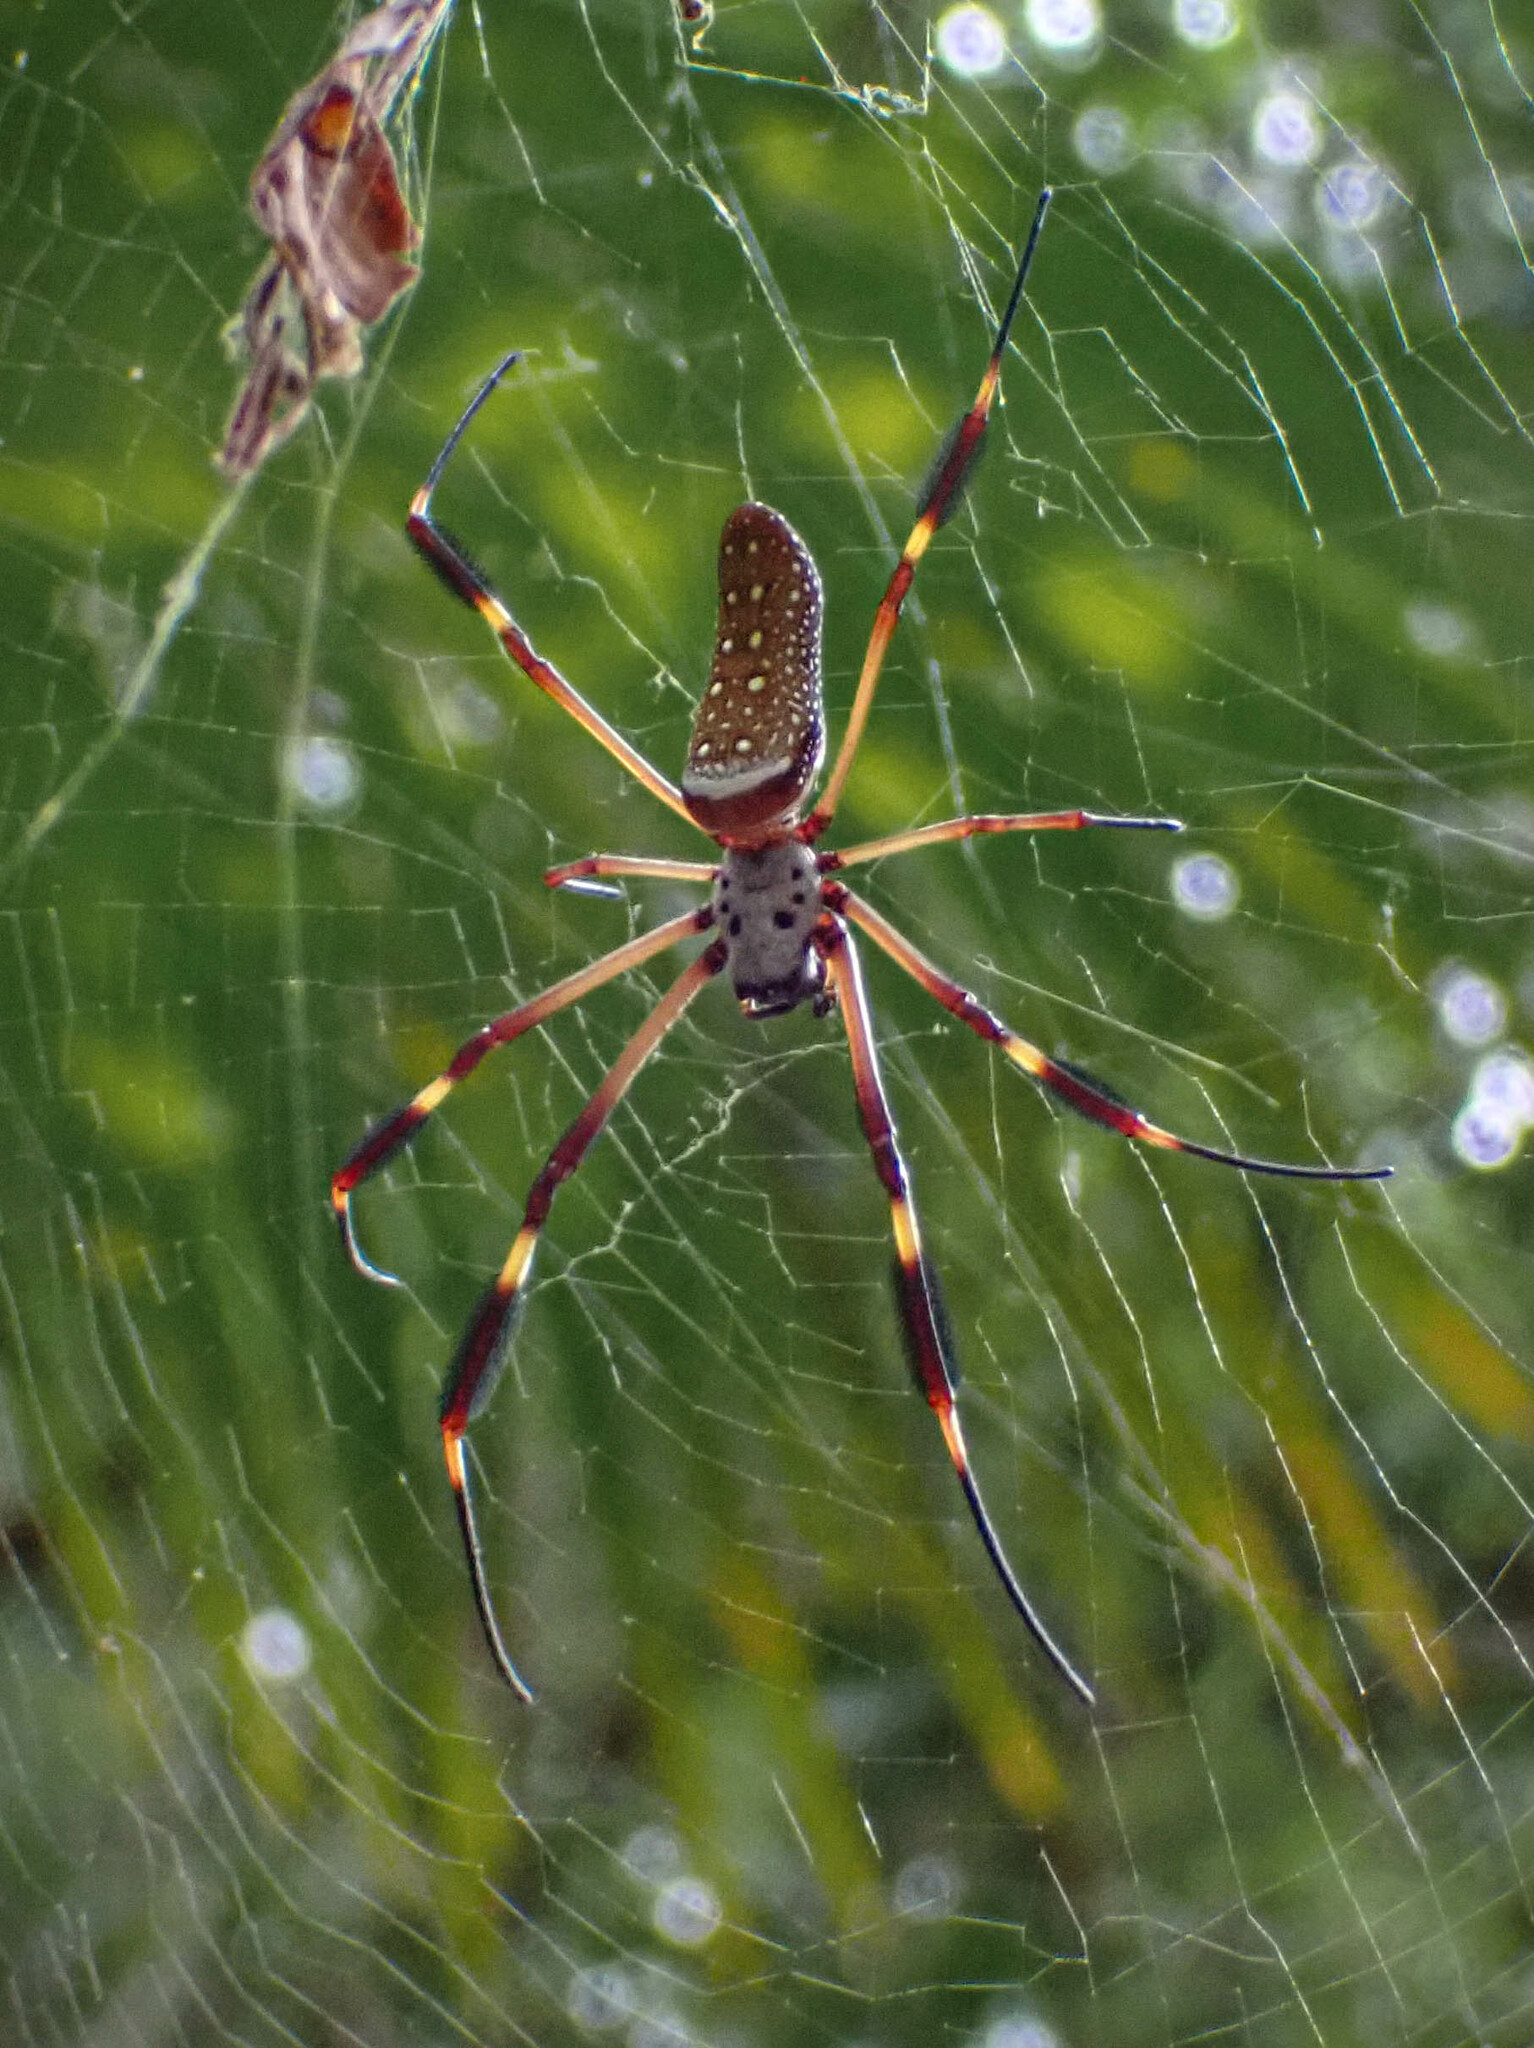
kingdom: Animalia
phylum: Arthropoda
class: Arachnida
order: Araneae
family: Araneidae
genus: Trichonephila
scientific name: Trichonephila clavipes
